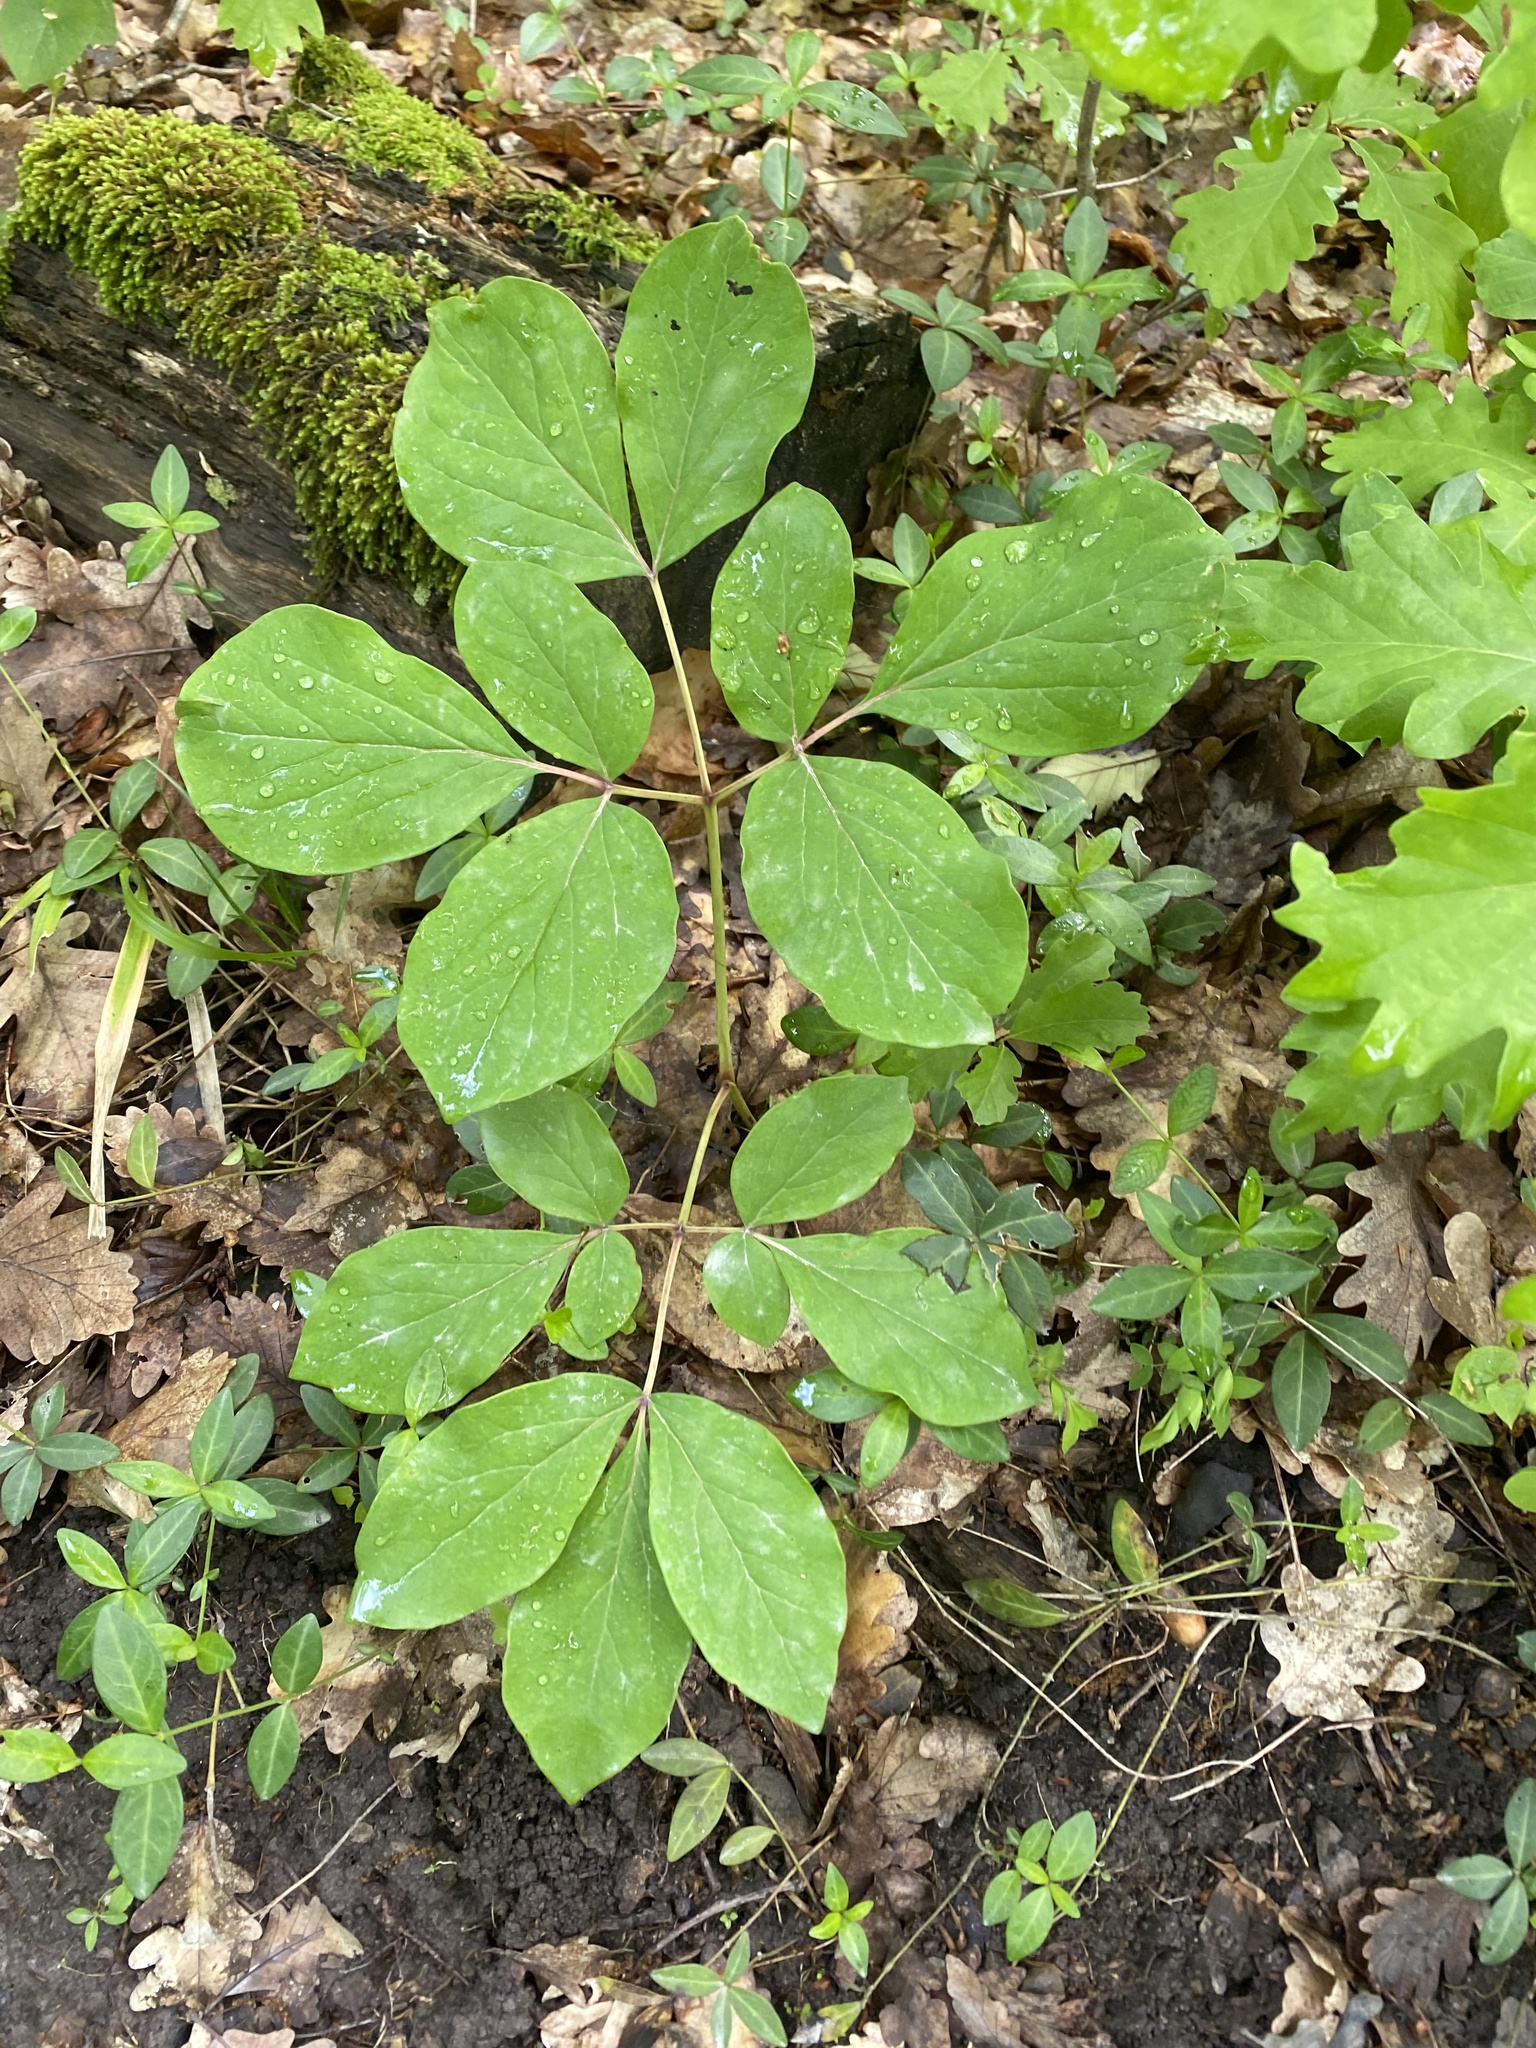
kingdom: Plantae
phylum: Tracheophyta
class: Magnoliopsida
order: Saxifragales
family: Paeoniaceae
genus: Paeonia
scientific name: Paeonia caucasica
